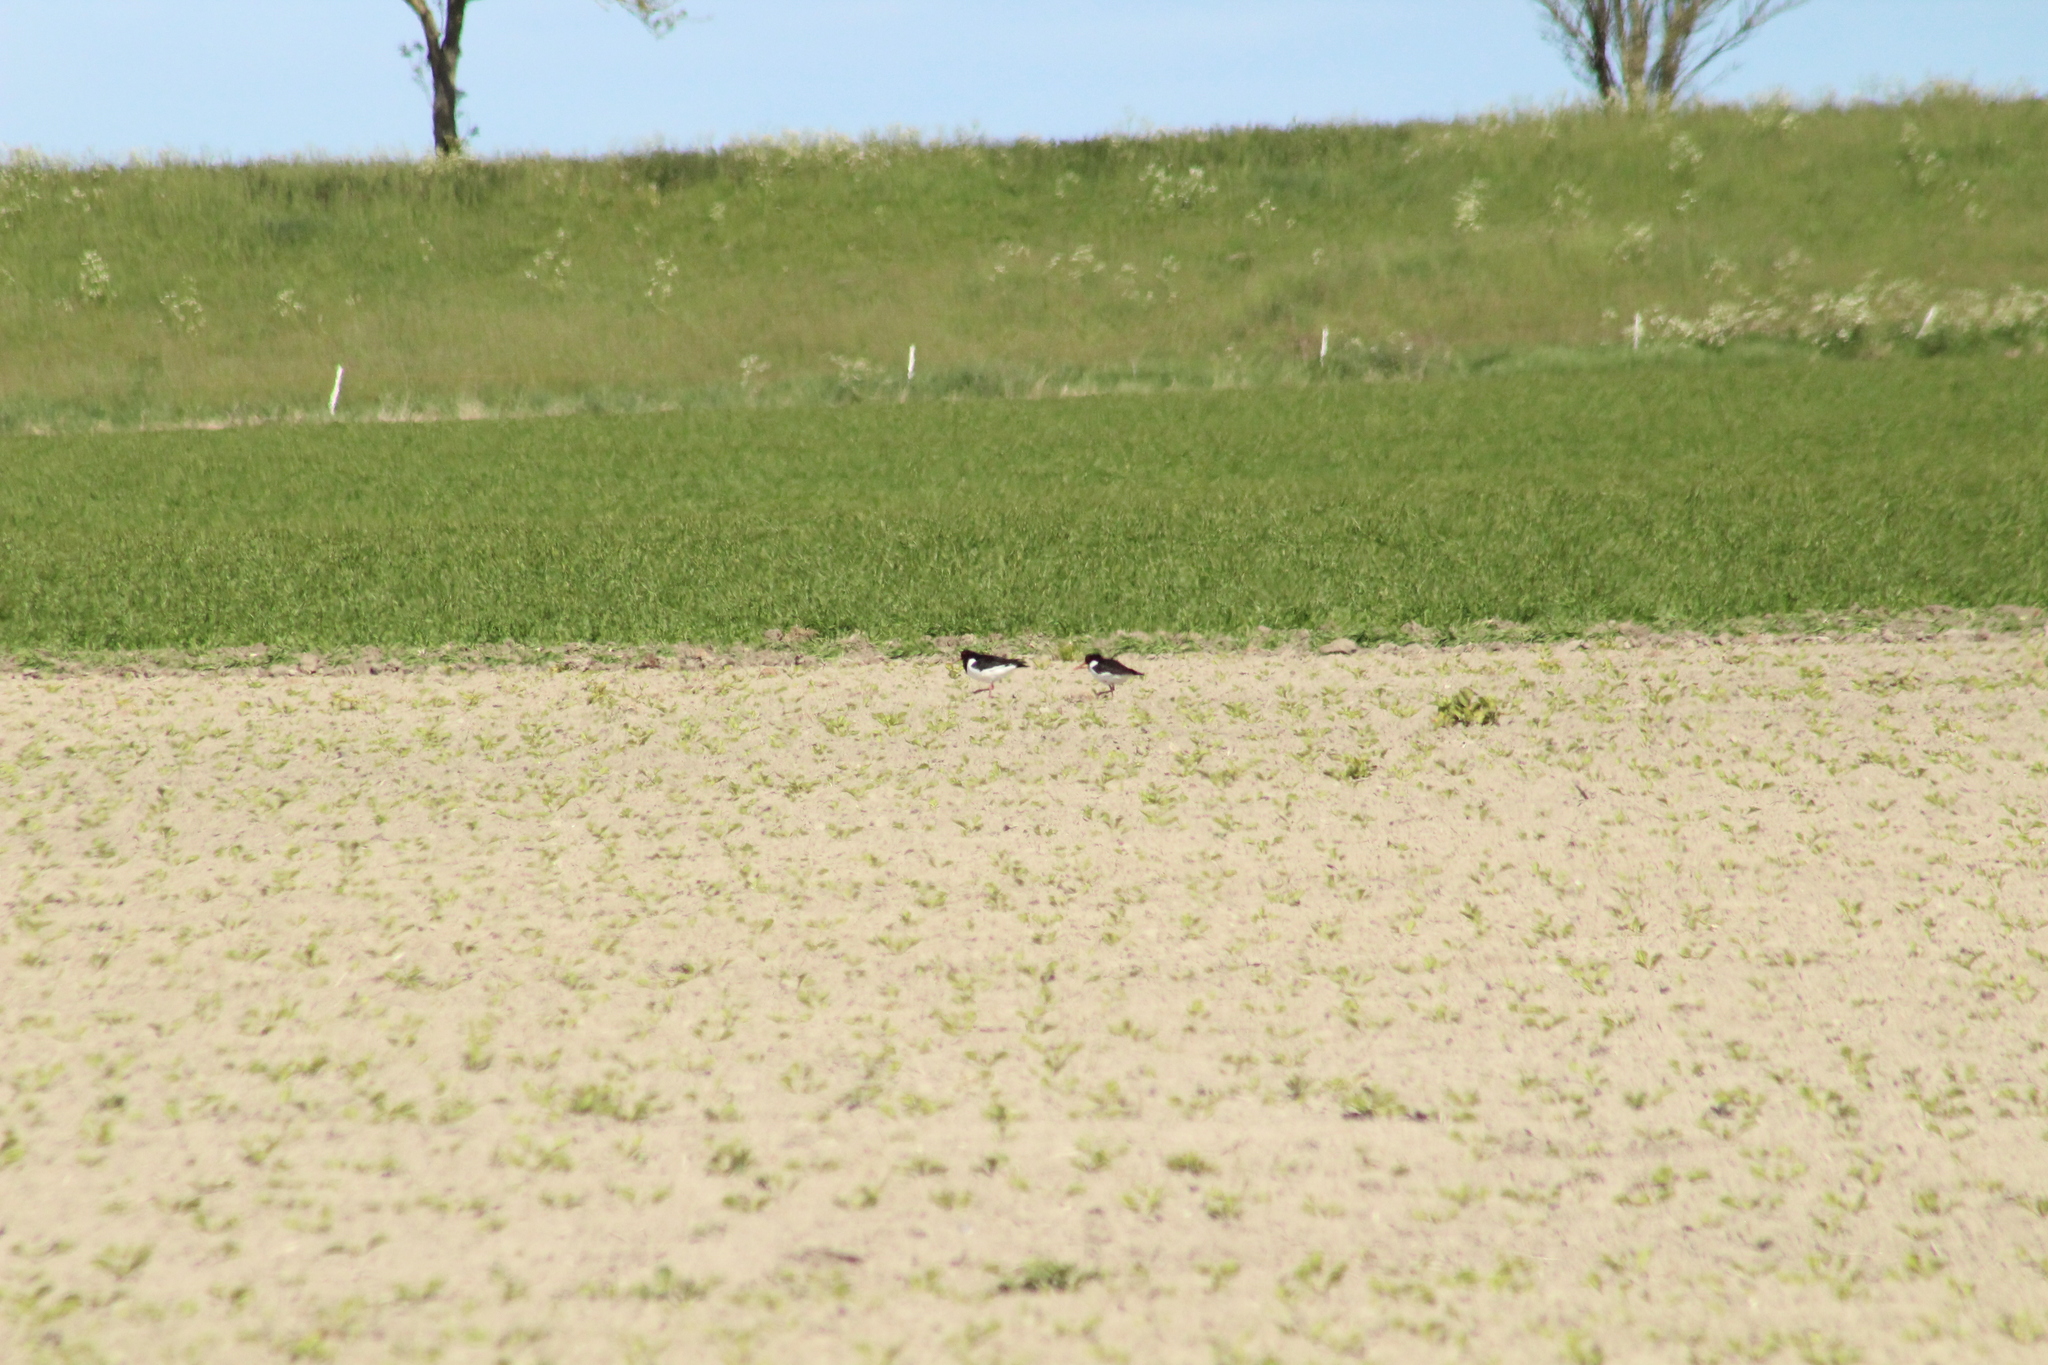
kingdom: Animalia
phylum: Chordata
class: Aves
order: Charadriiformes
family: Haematopodidae
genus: Haematopus
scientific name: Haematopus ostralegus
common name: Eurasian oystercatcher
